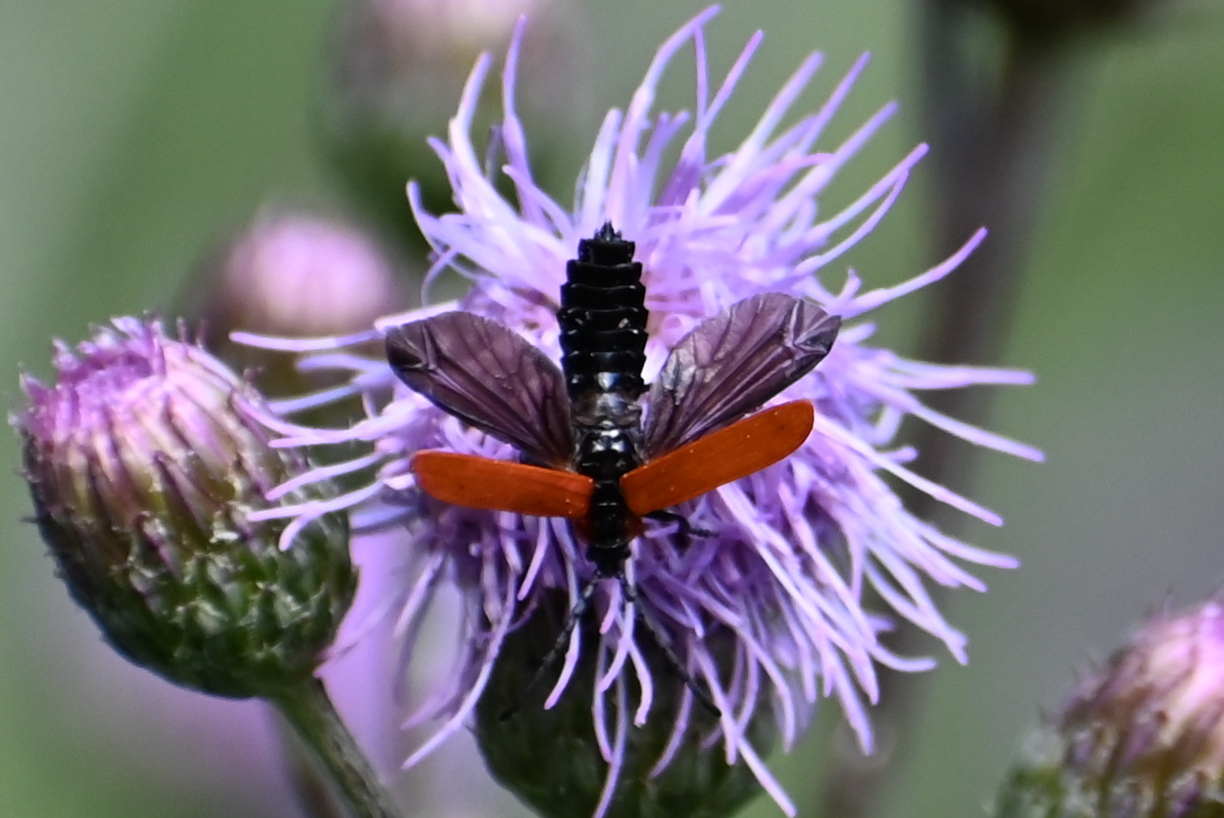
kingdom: Animalia
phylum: Arthropoda
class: Insecta
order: Coleoptera
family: Lycidae
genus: Lygistopterus
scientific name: Lygistopterus sanguineus
